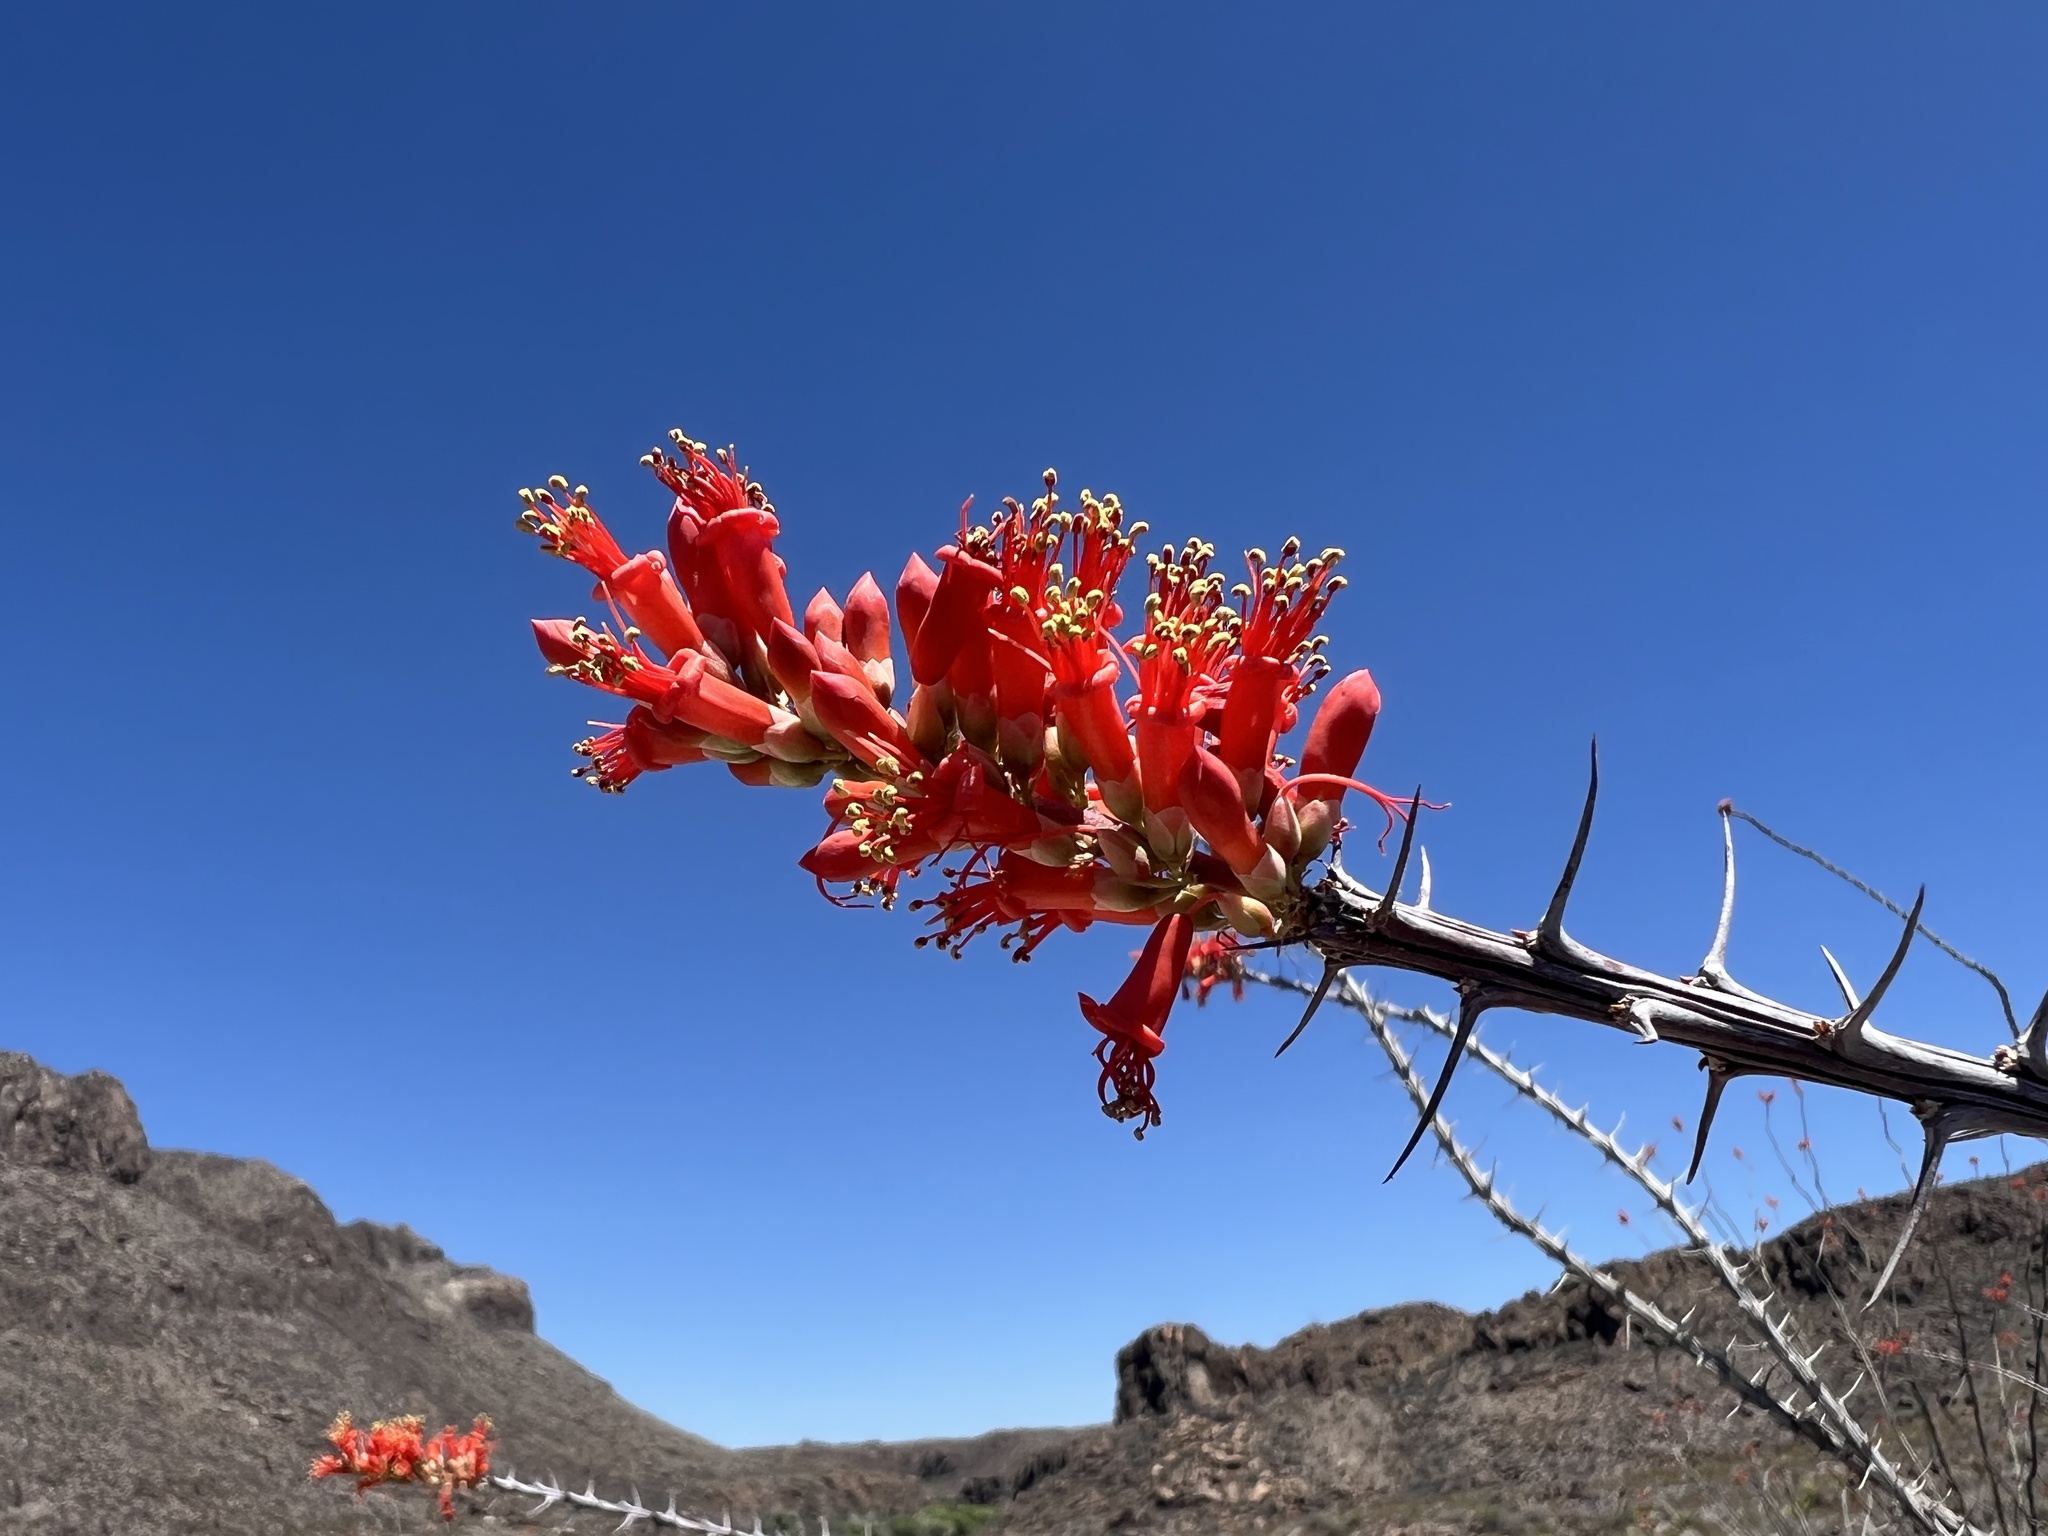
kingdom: Plantae
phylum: Tracheophyta
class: Magnoliopsida
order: Ericales
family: Fouquieriaceae
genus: Fouquieria
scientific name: Fouquieria splendens
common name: Vine-cactus
